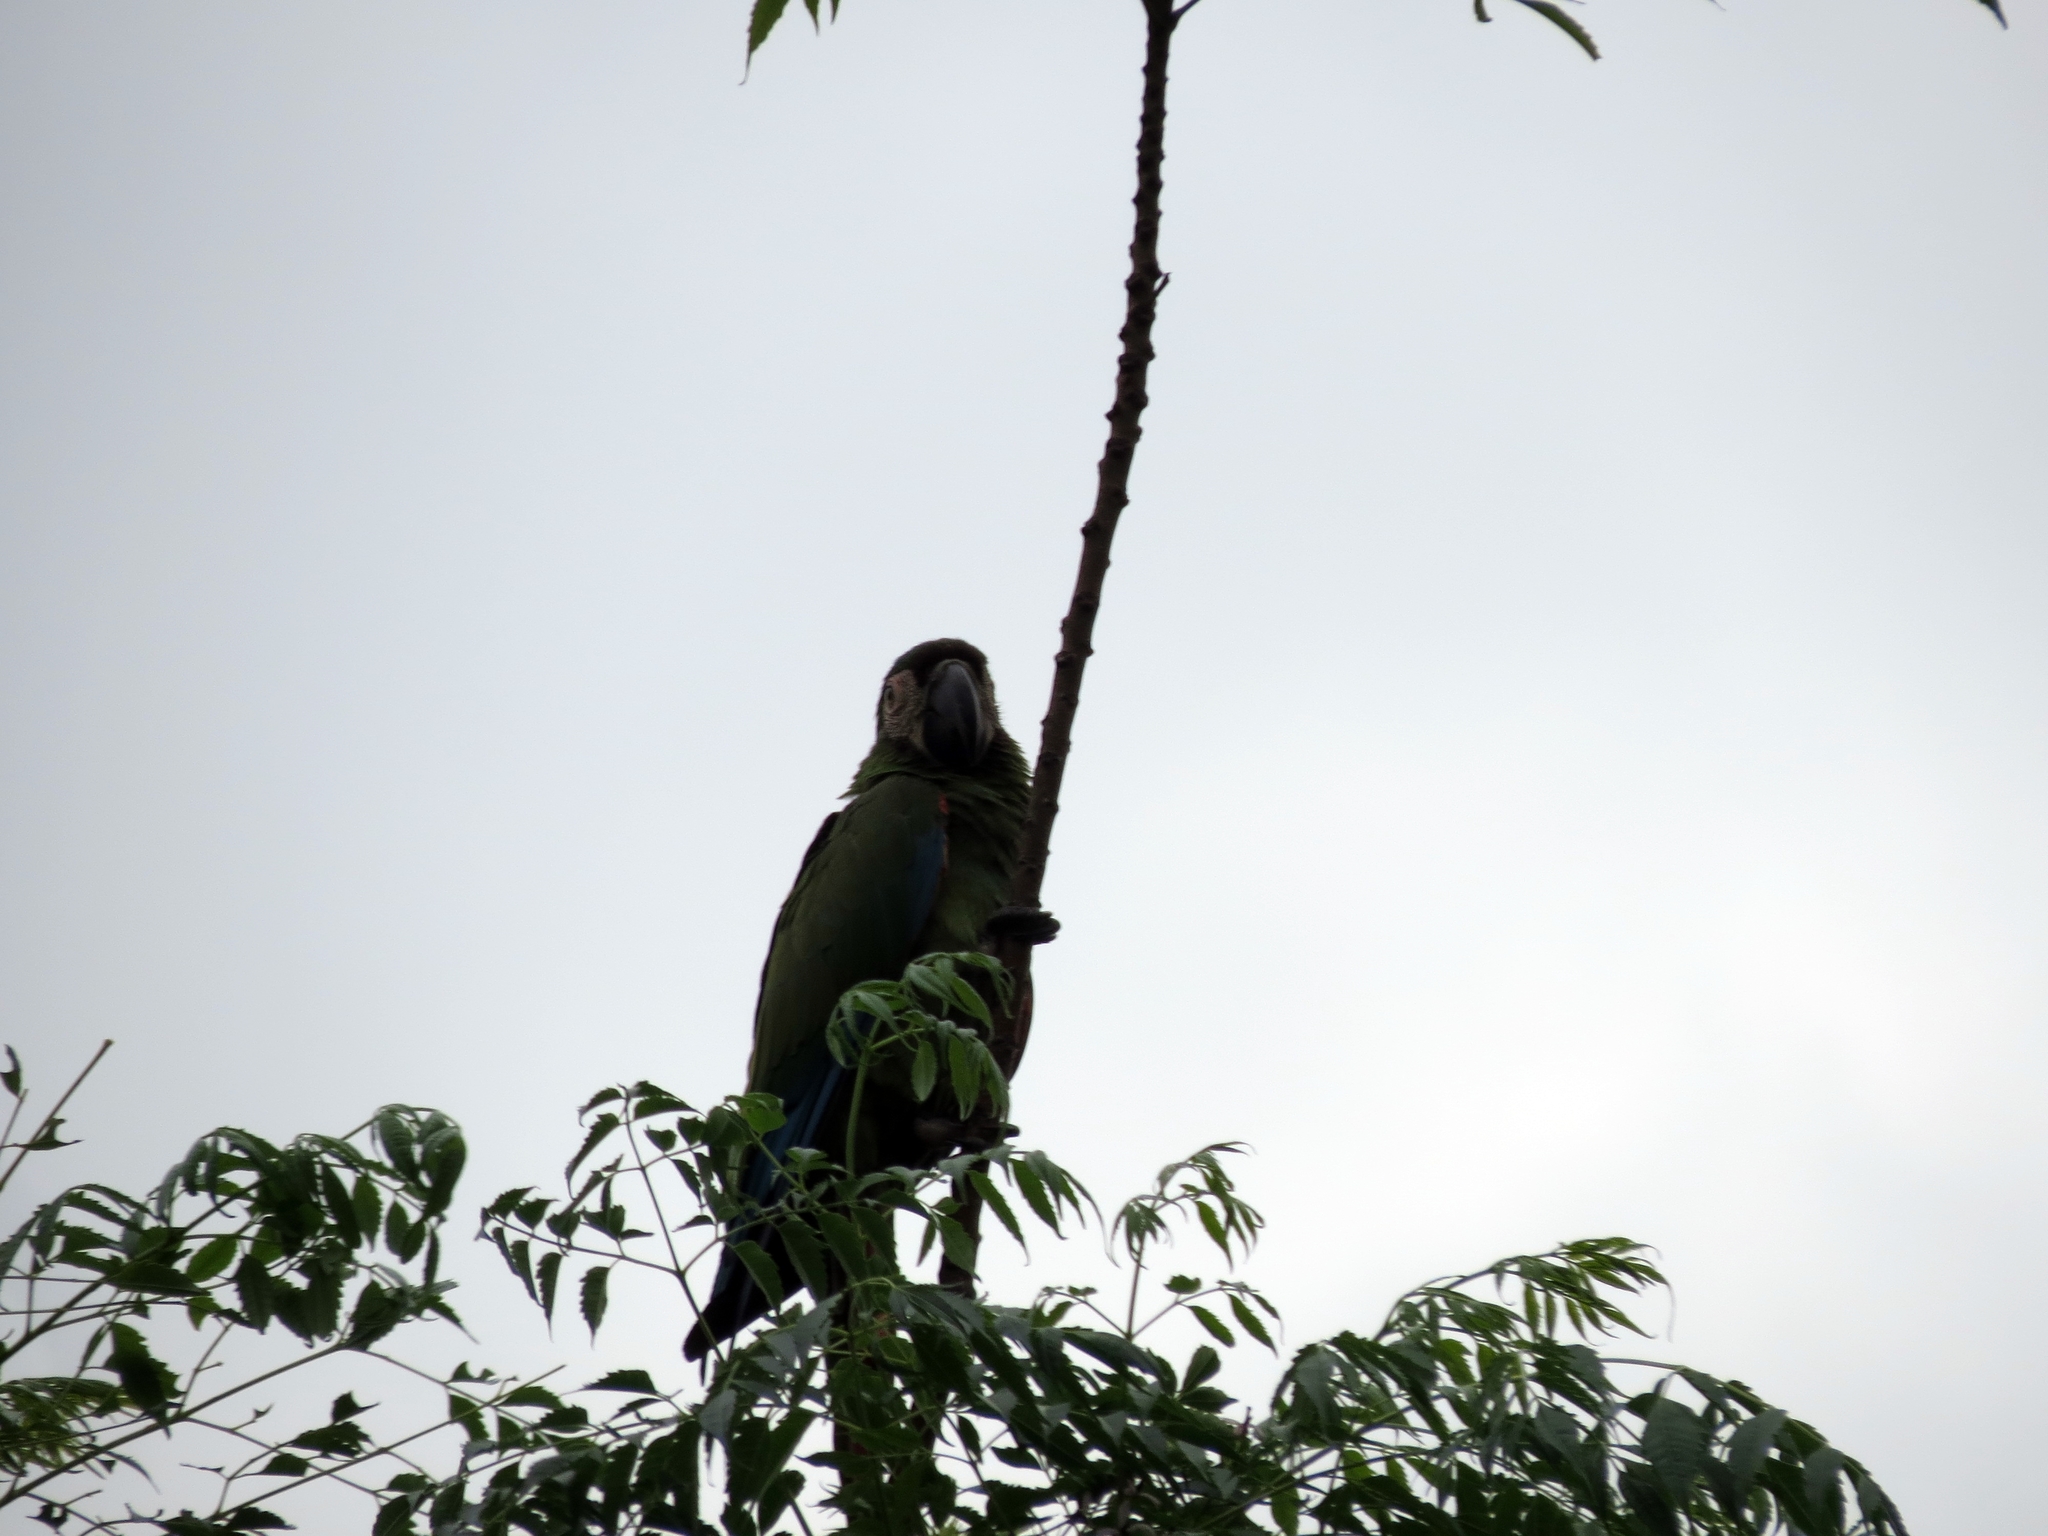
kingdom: Animalia
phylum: Chordata
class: Aves
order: Psittaciformes
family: Psittacidae
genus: Ara
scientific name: Ara severus
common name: Chestnut-fronted macaw
